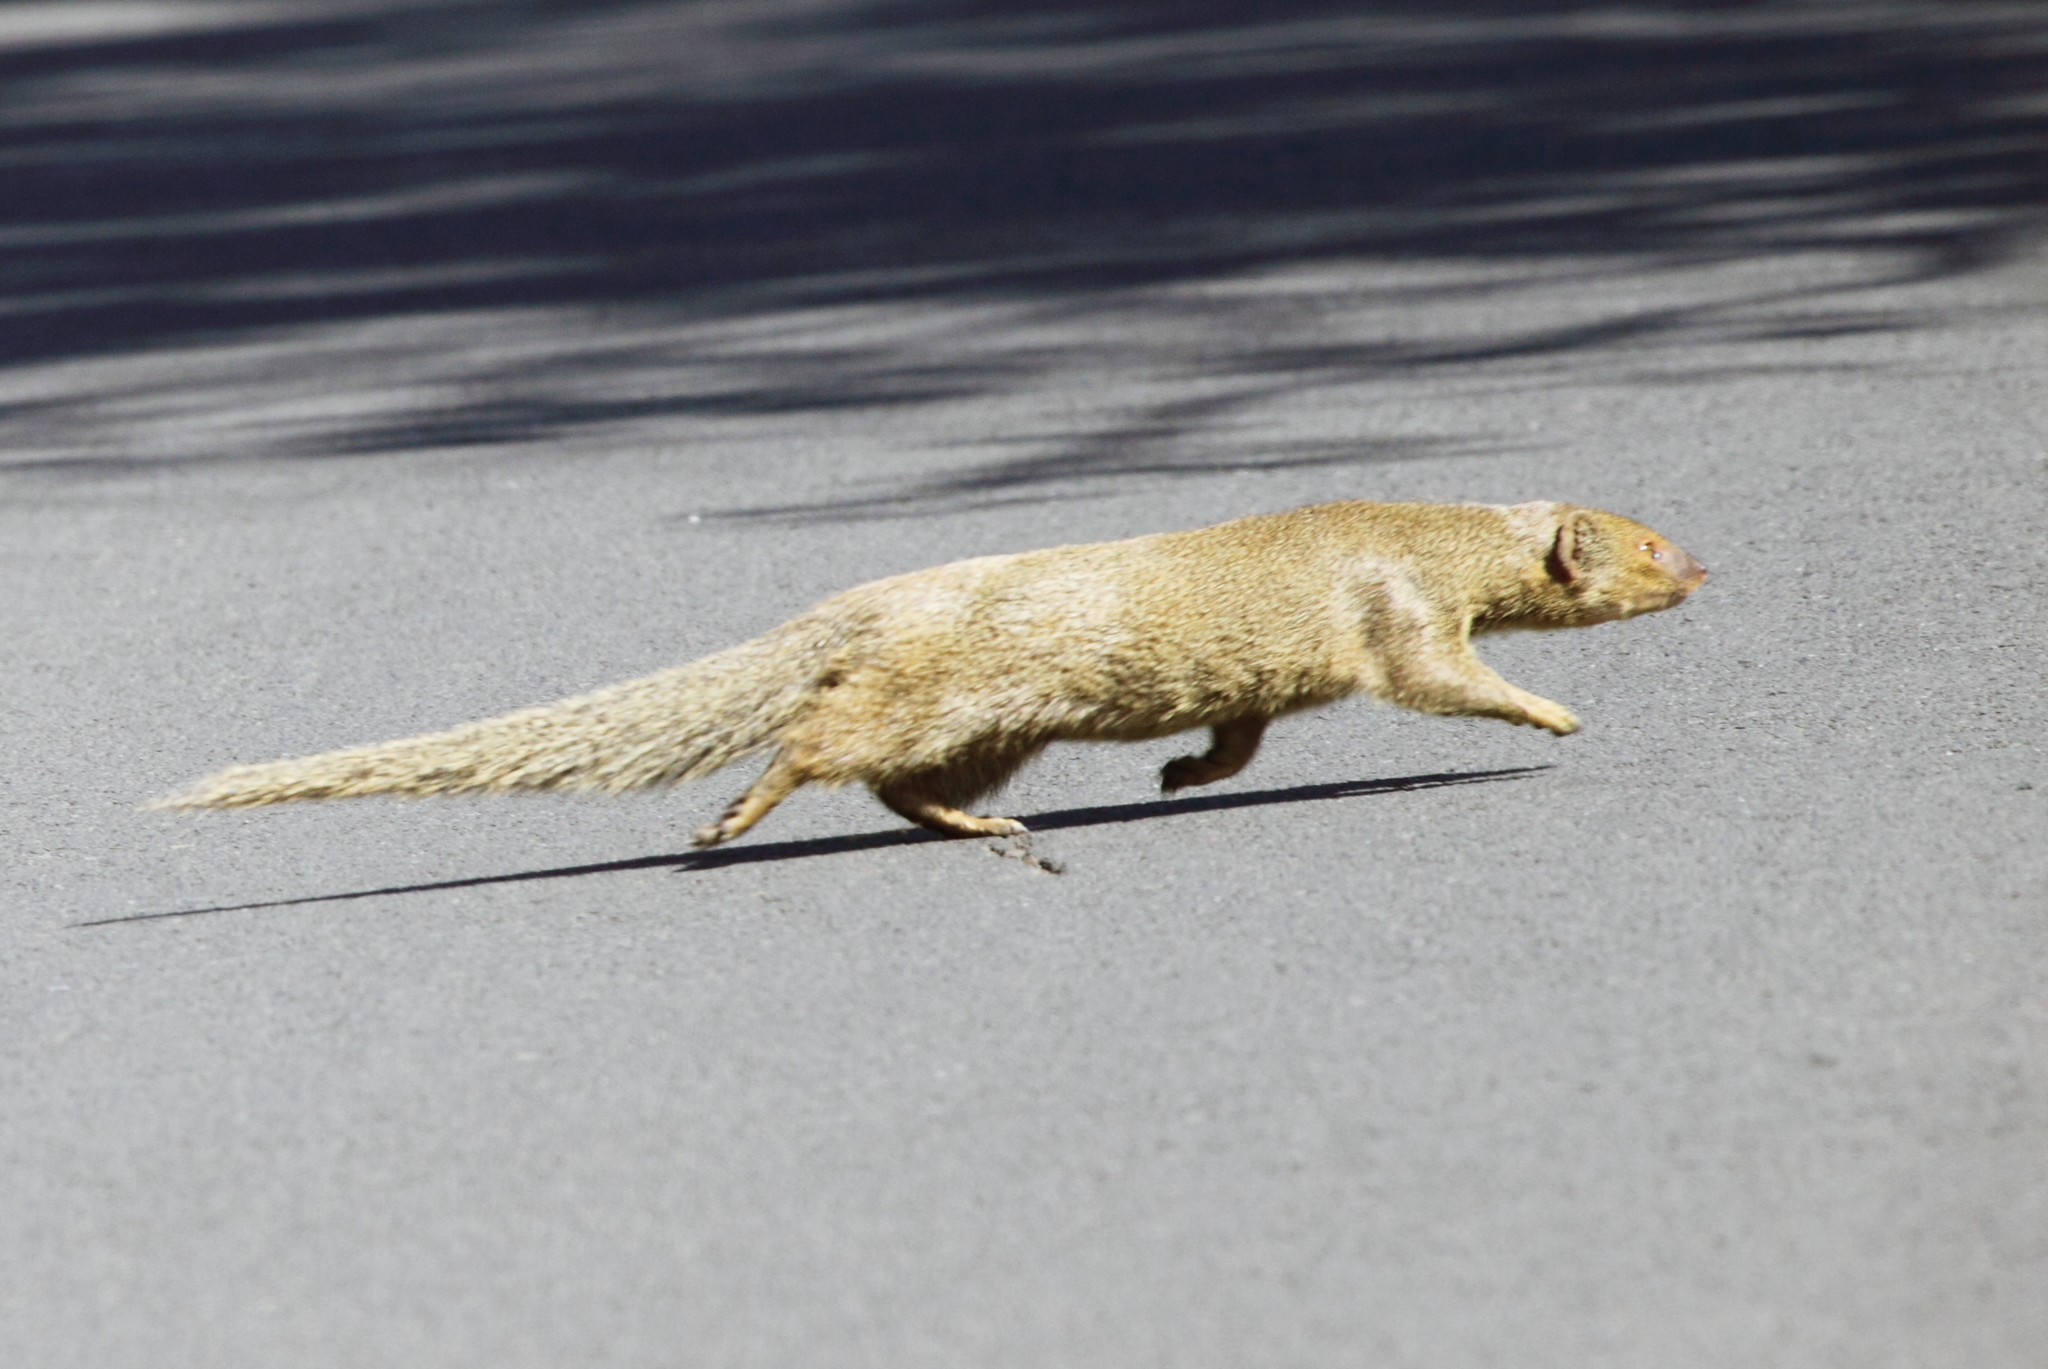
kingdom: Animalia
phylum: Chordata
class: Mammalia
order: Carnivora
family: Herpestidae
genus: Herpestes
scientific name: Herpestes javanicus
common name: Small asian mongoose
